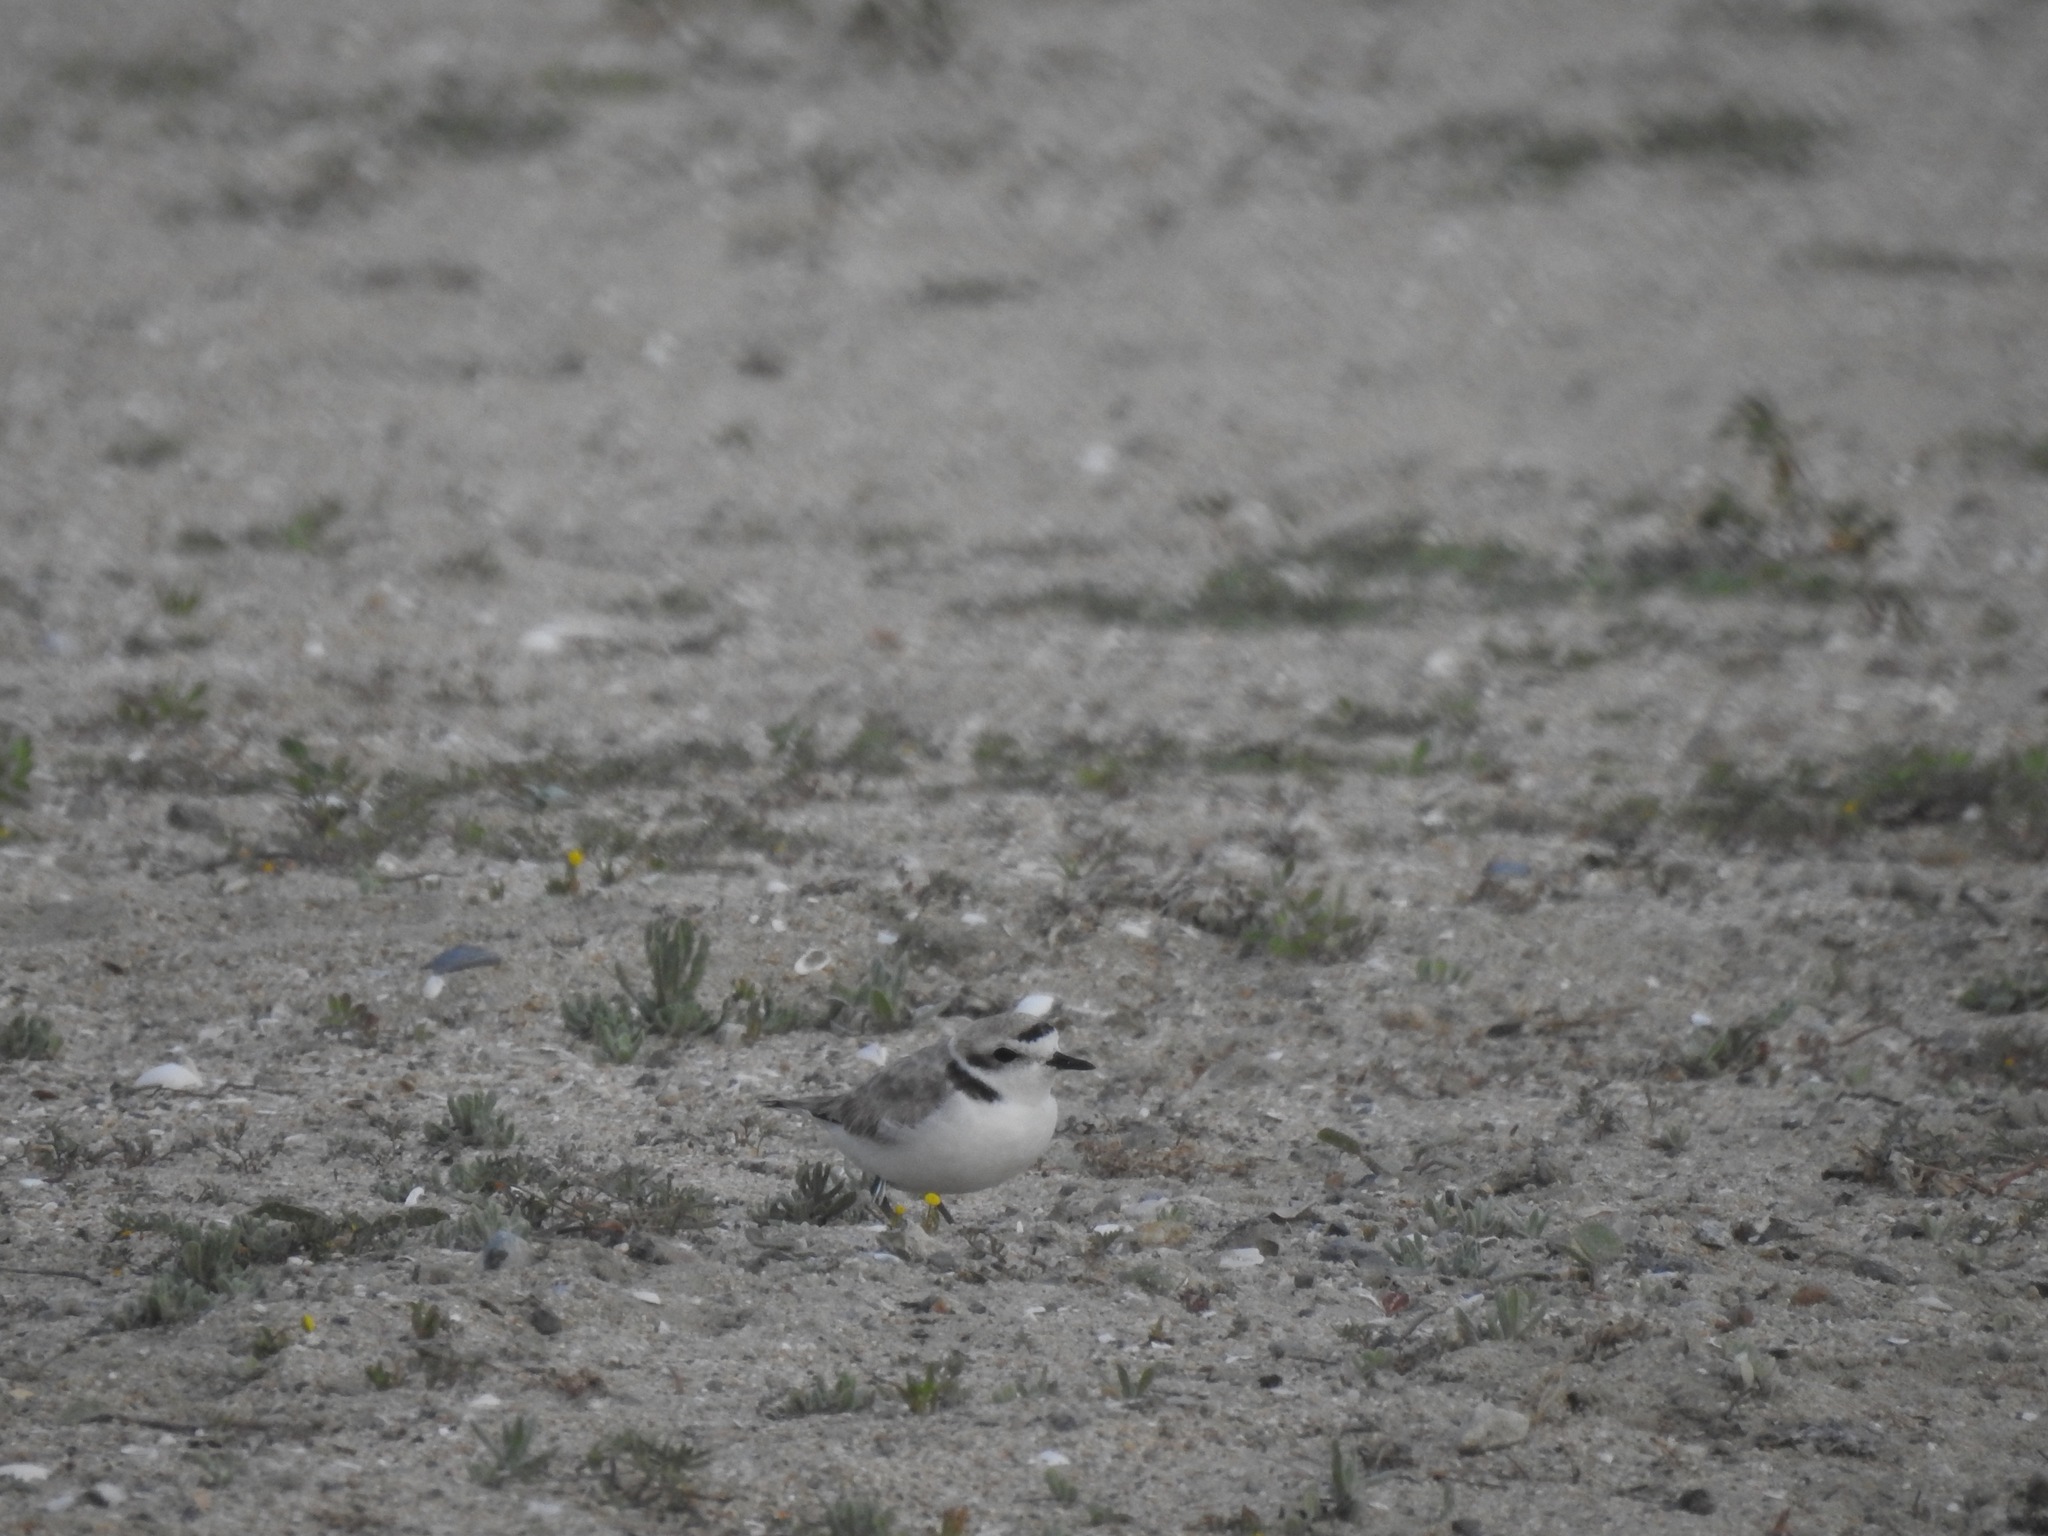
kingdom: Animalia
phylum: Chordata
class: Aves
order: Charadriiformes
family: Charadriidae
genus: Anarhynchus
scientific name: Anarhynchus
